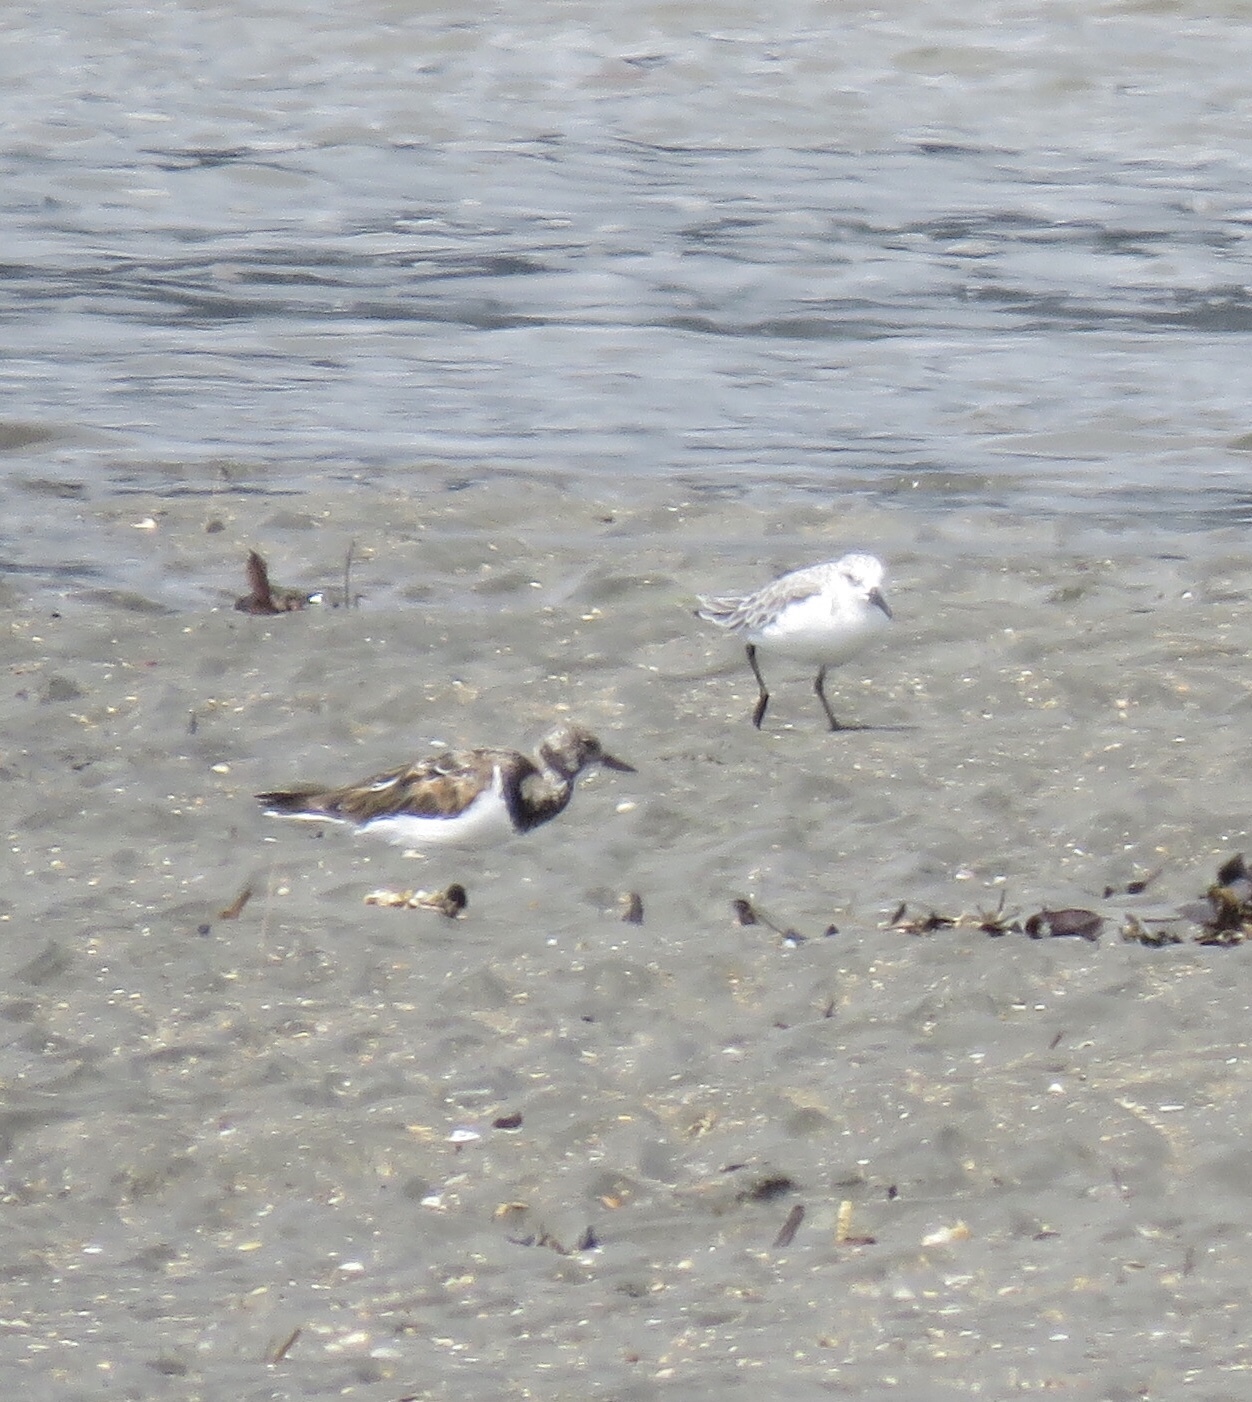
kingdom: Animalia
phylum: Chordata
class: Aves
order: Charadriiformes
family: Scolopacidae
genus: Calidris
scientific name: Calidris alba
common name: Sanderling
